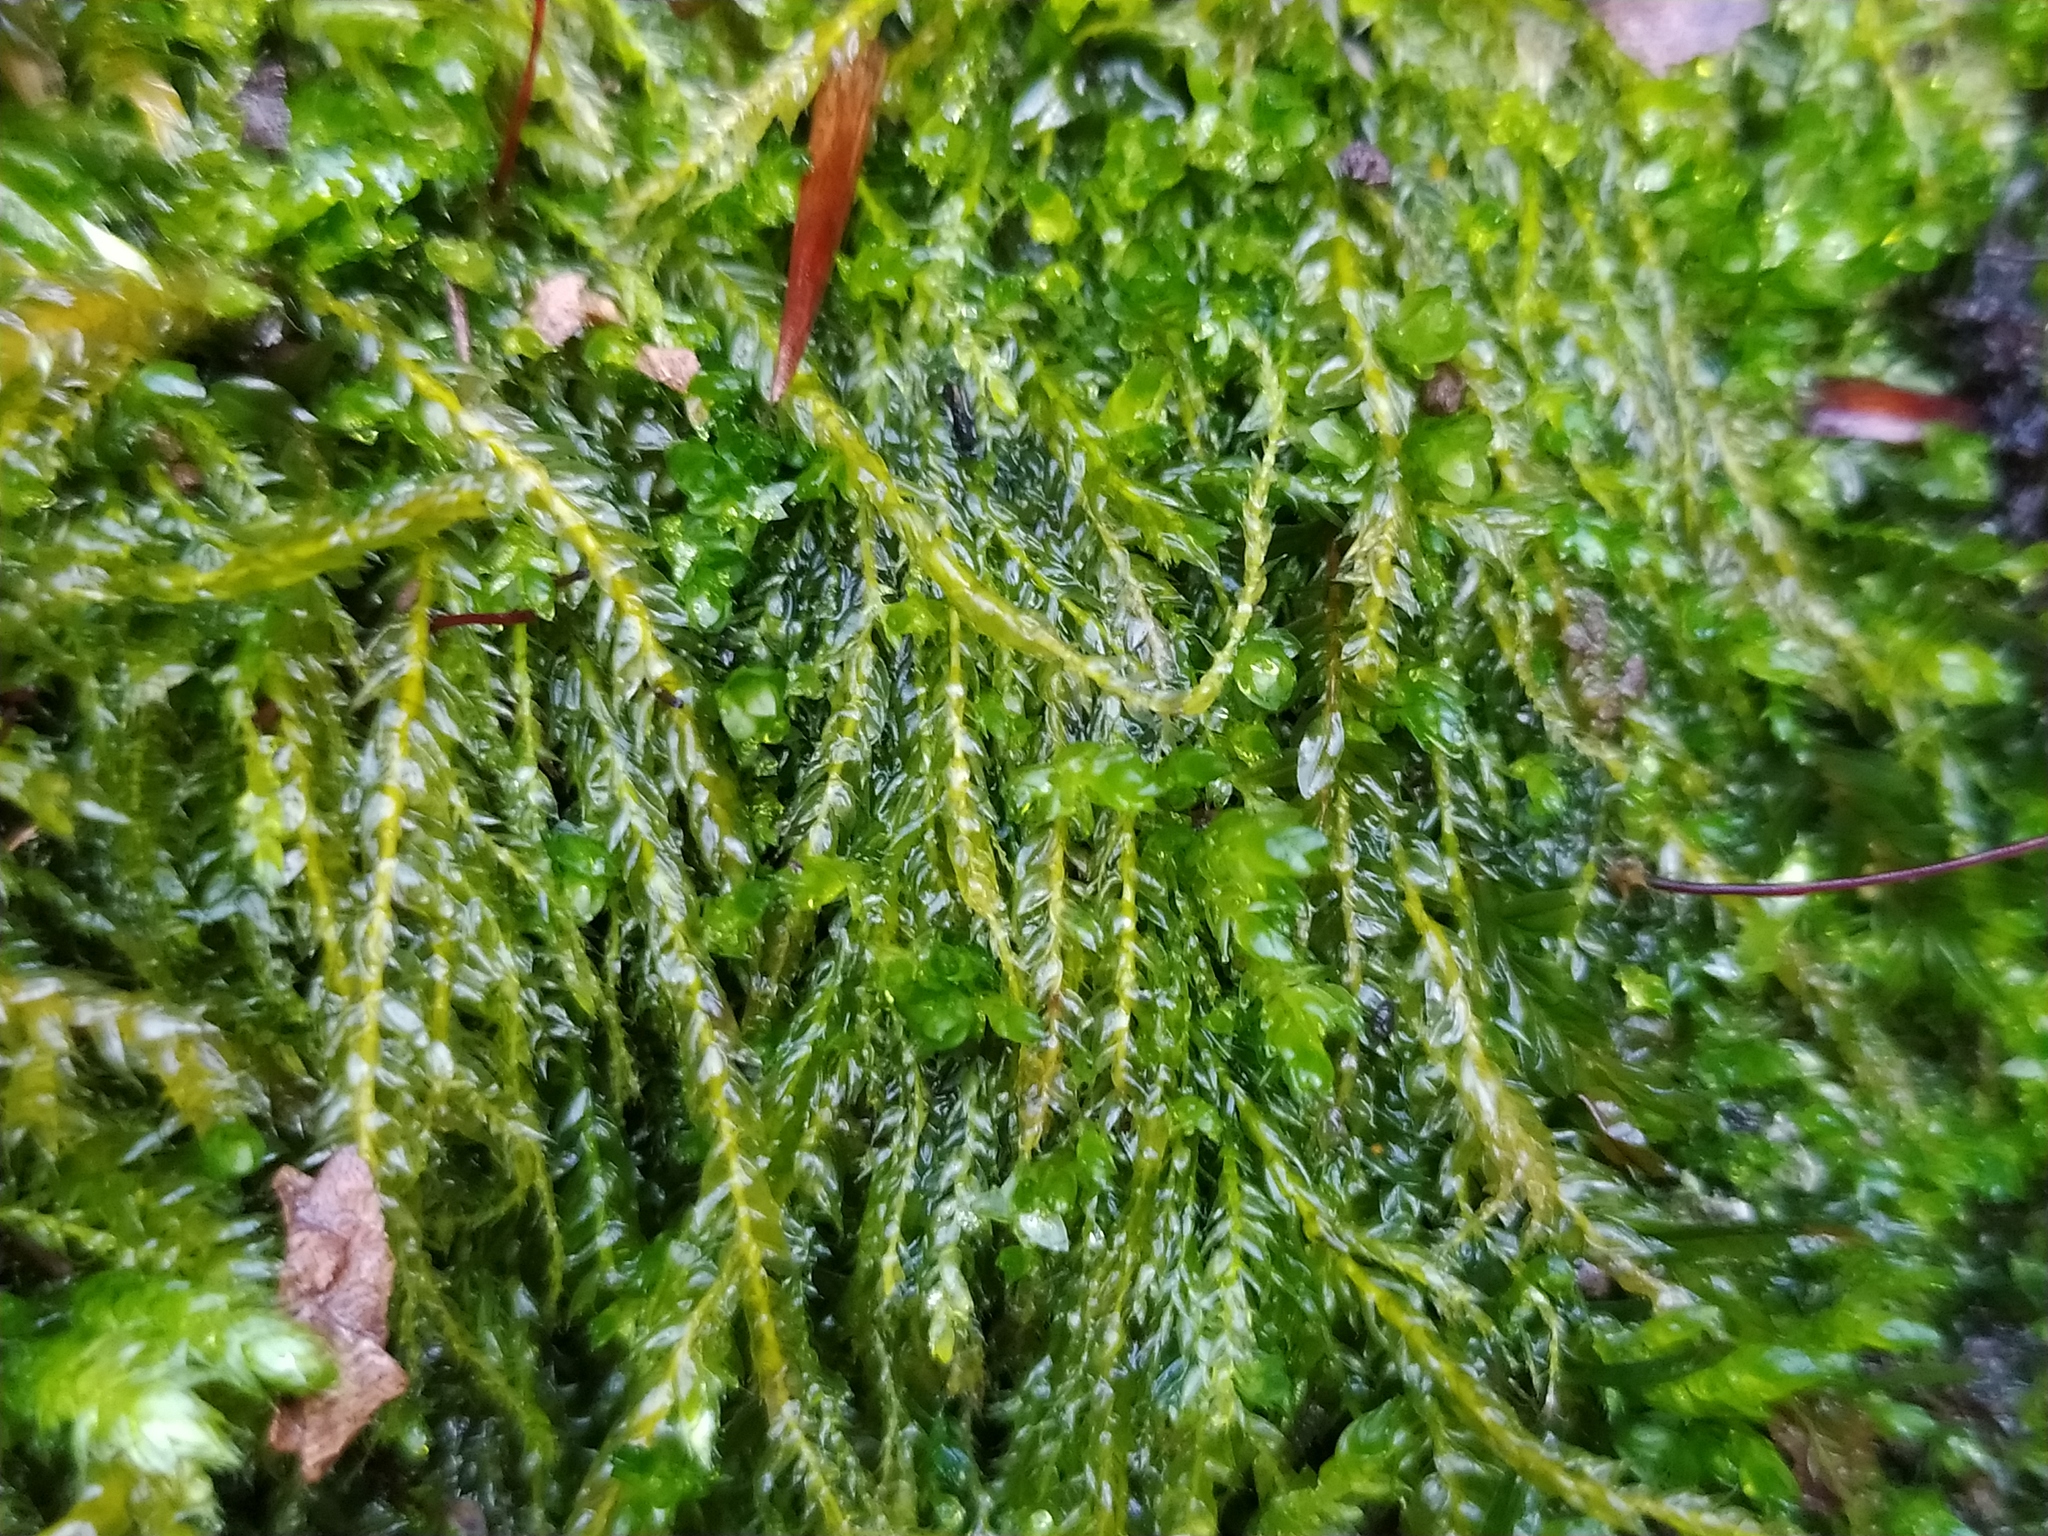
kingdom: Plantae
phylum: Bryophyta
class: Bryopsida
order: Hypnales
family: Plagiotheciaceae
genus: Plagiothecium
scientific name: Plagiothecium denticulatum
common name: Dented silk moss
